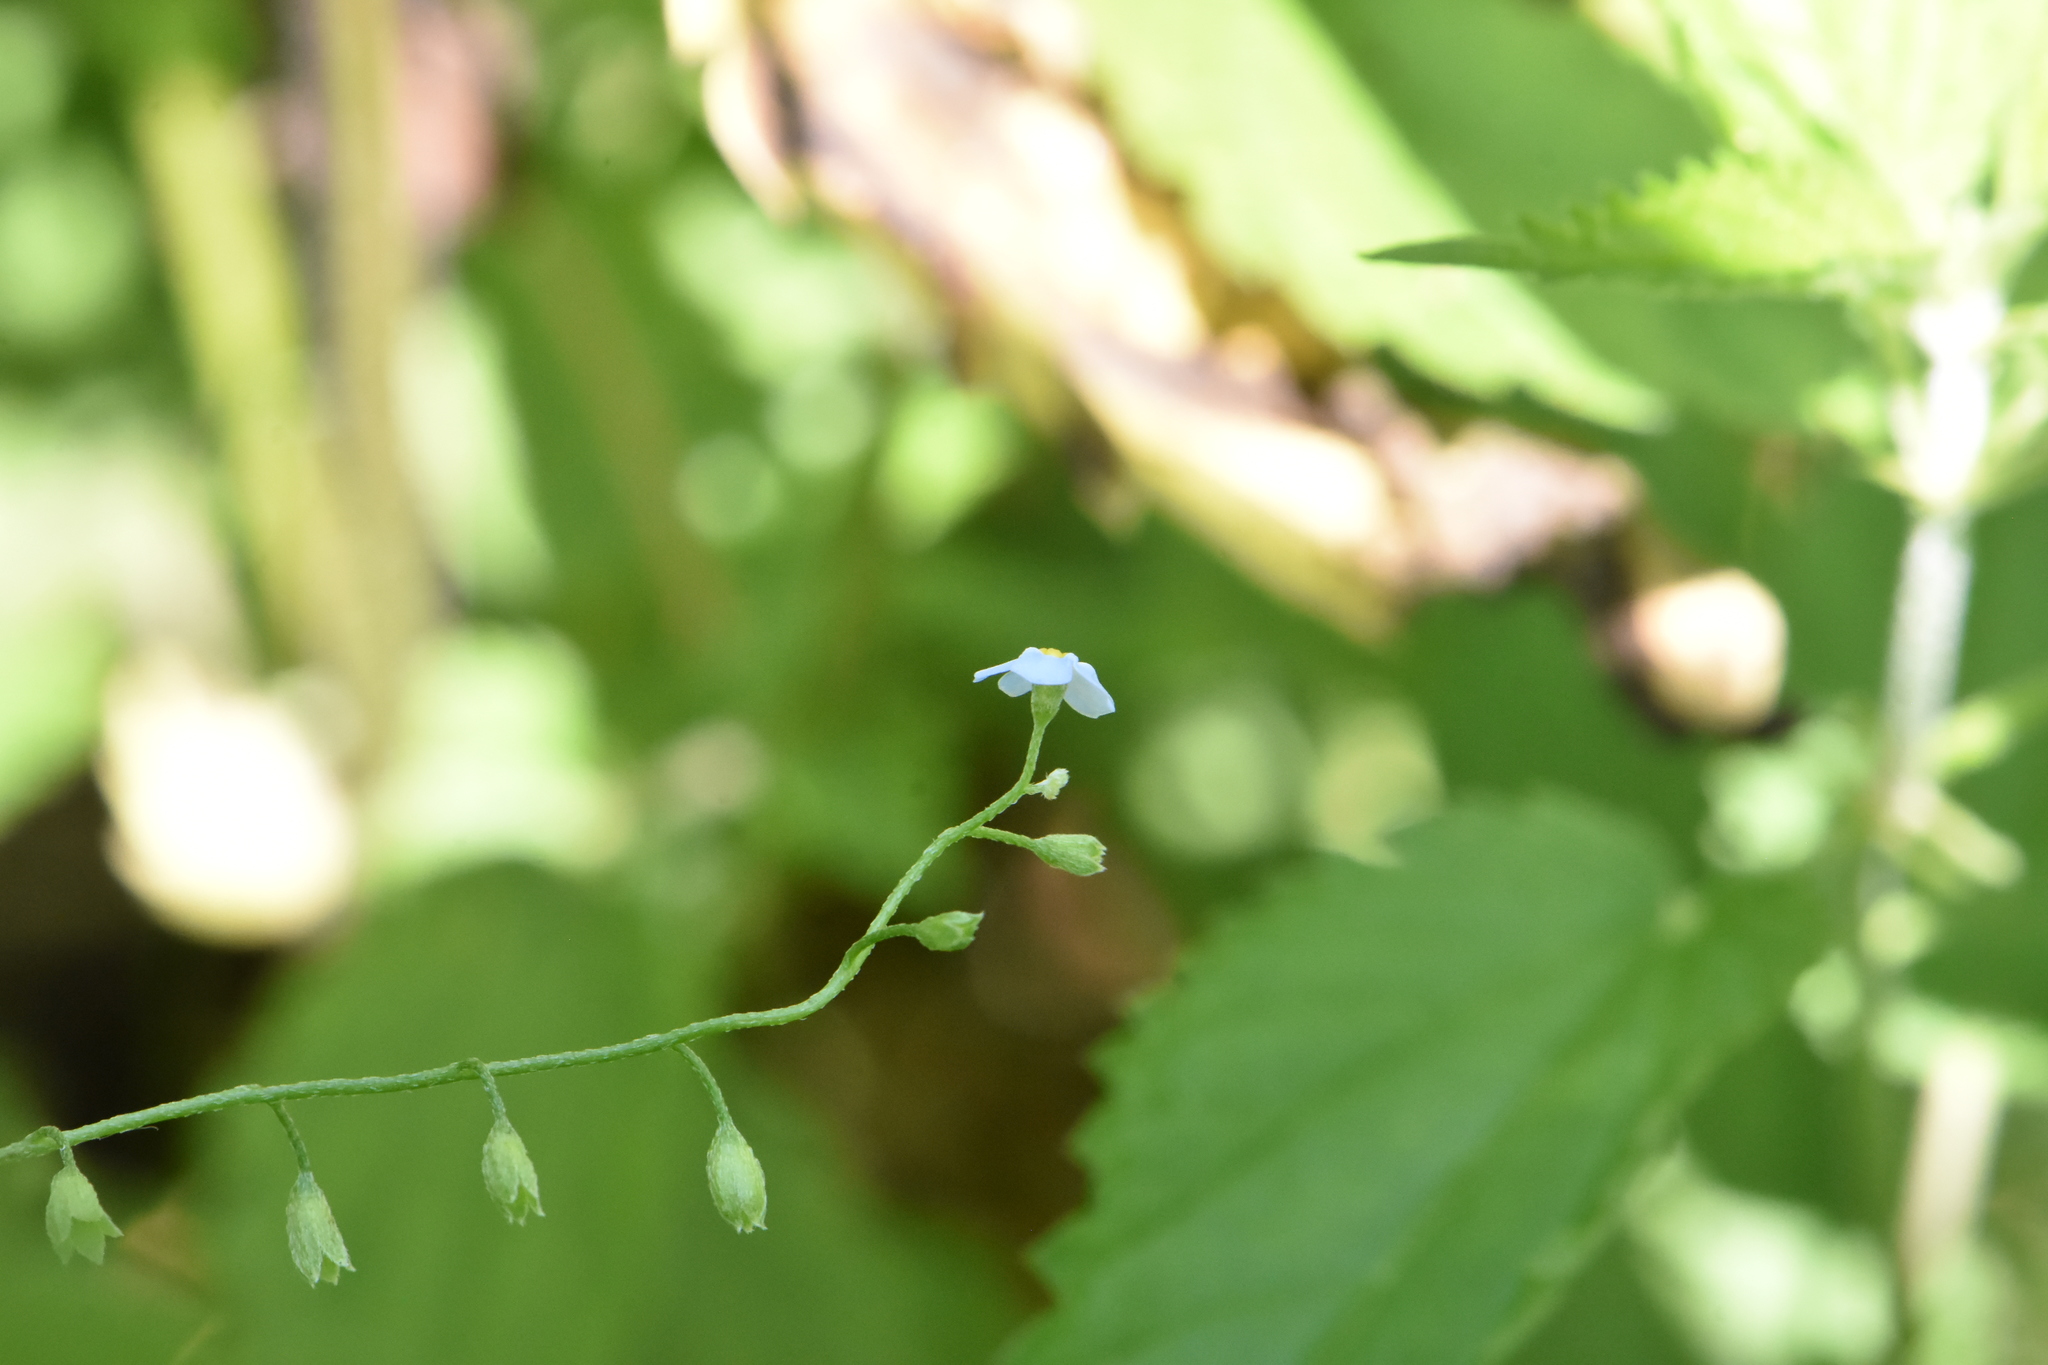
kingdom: Plantae
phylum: Tracheophyta
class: Magnoliopsida
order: Boraginales
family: Boraginaceae
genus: Myosotis
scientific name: Myosotis scorpioides
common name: Water forget-me-not
